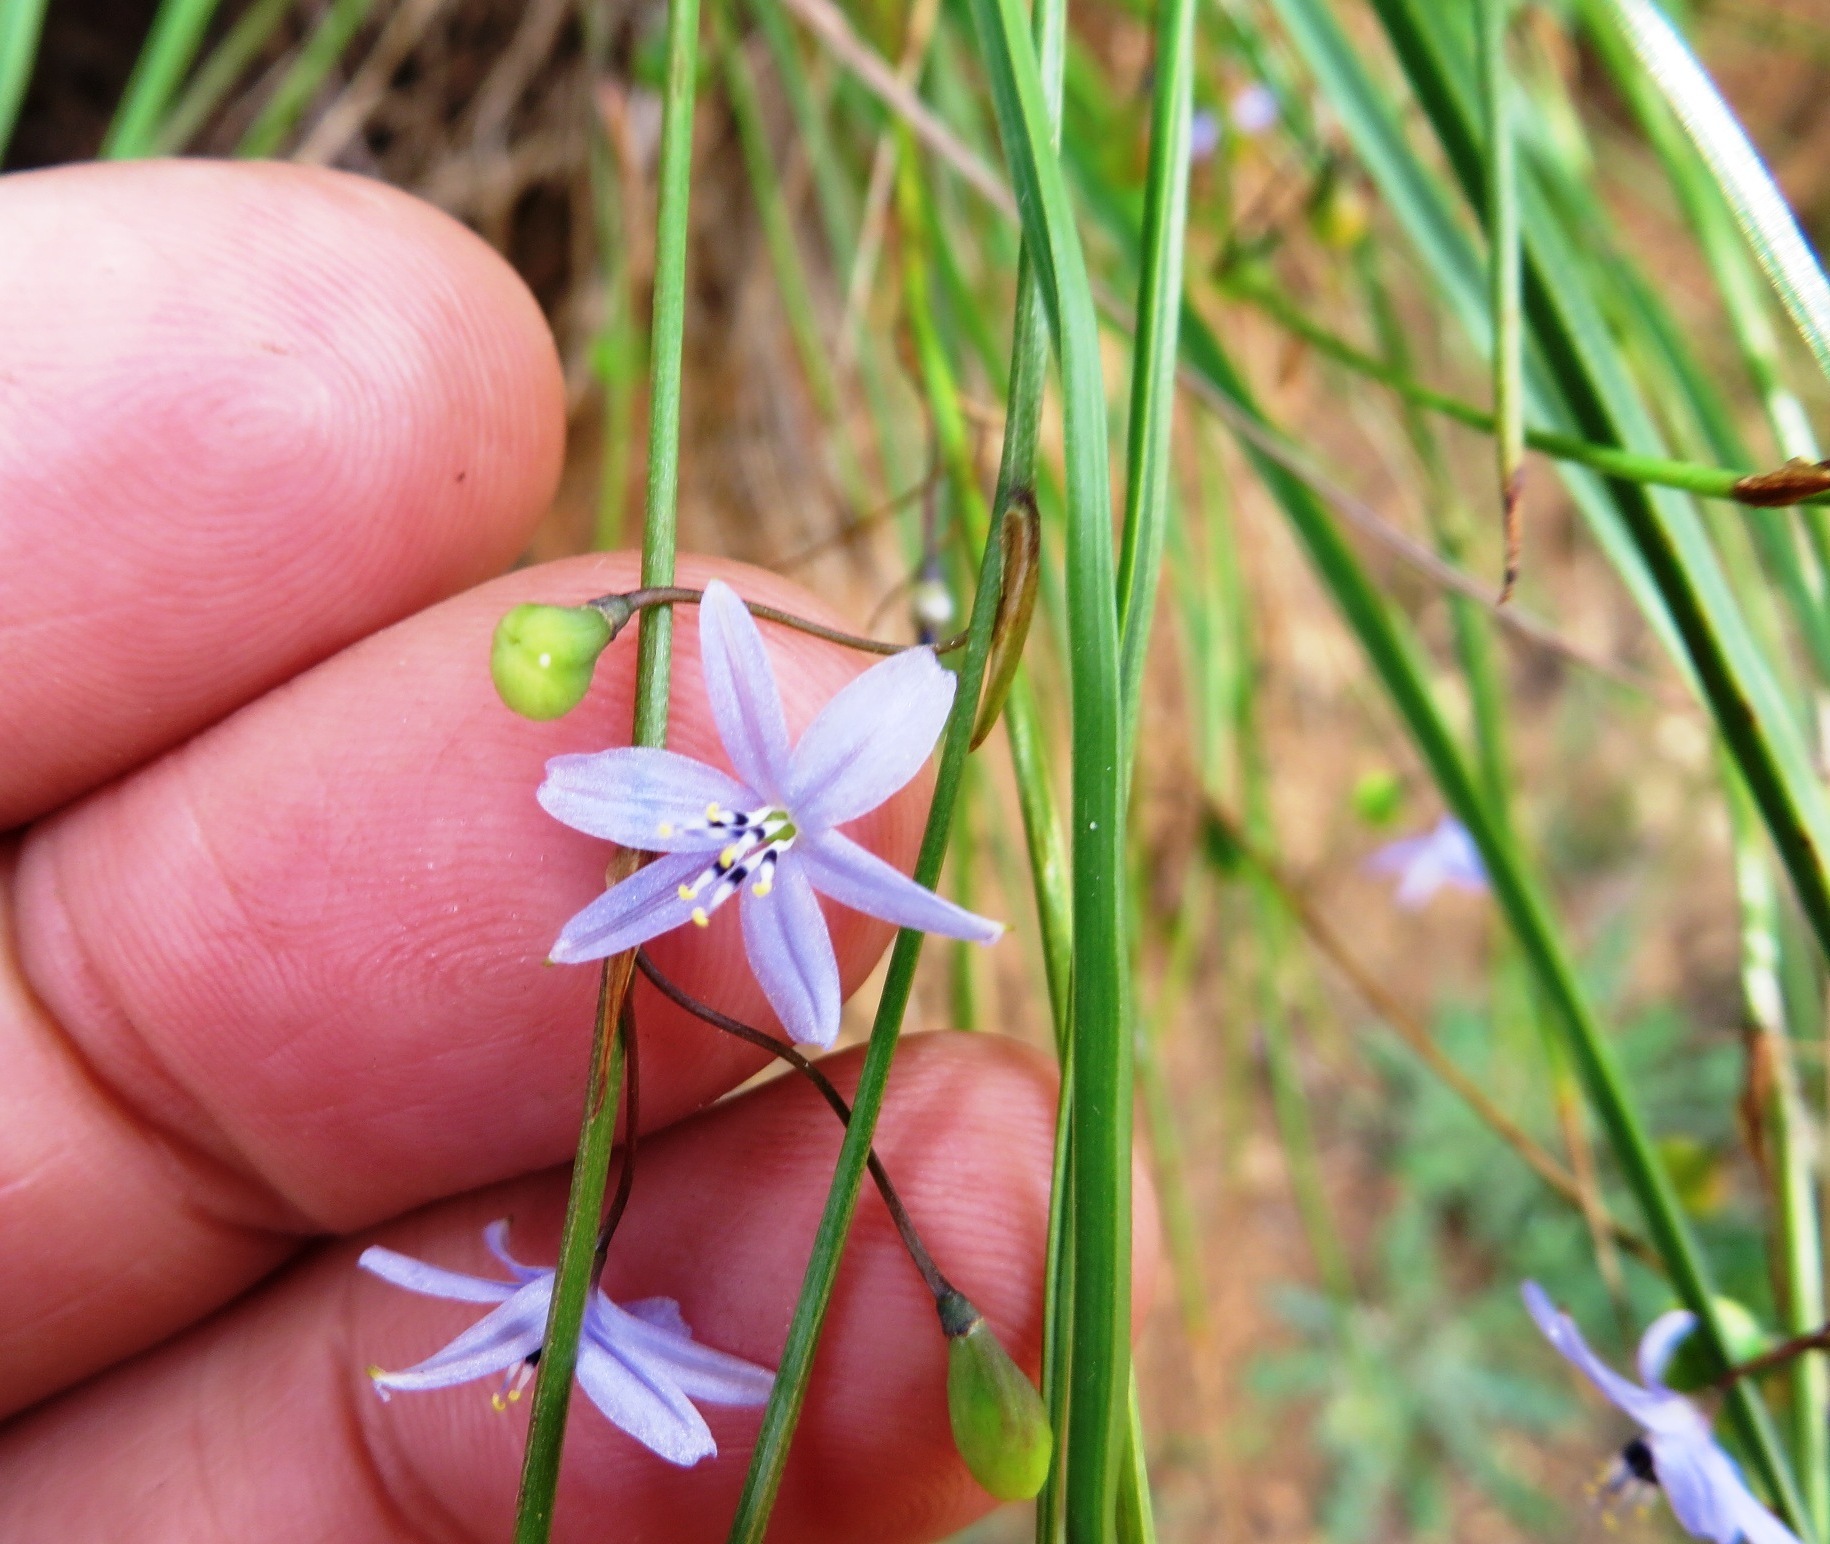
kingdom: Plantae
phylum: Tracheophyta
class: Liliopsida
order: Asparagales
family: Asphodelaceae
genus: Caesia
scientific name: Caesia contorta
